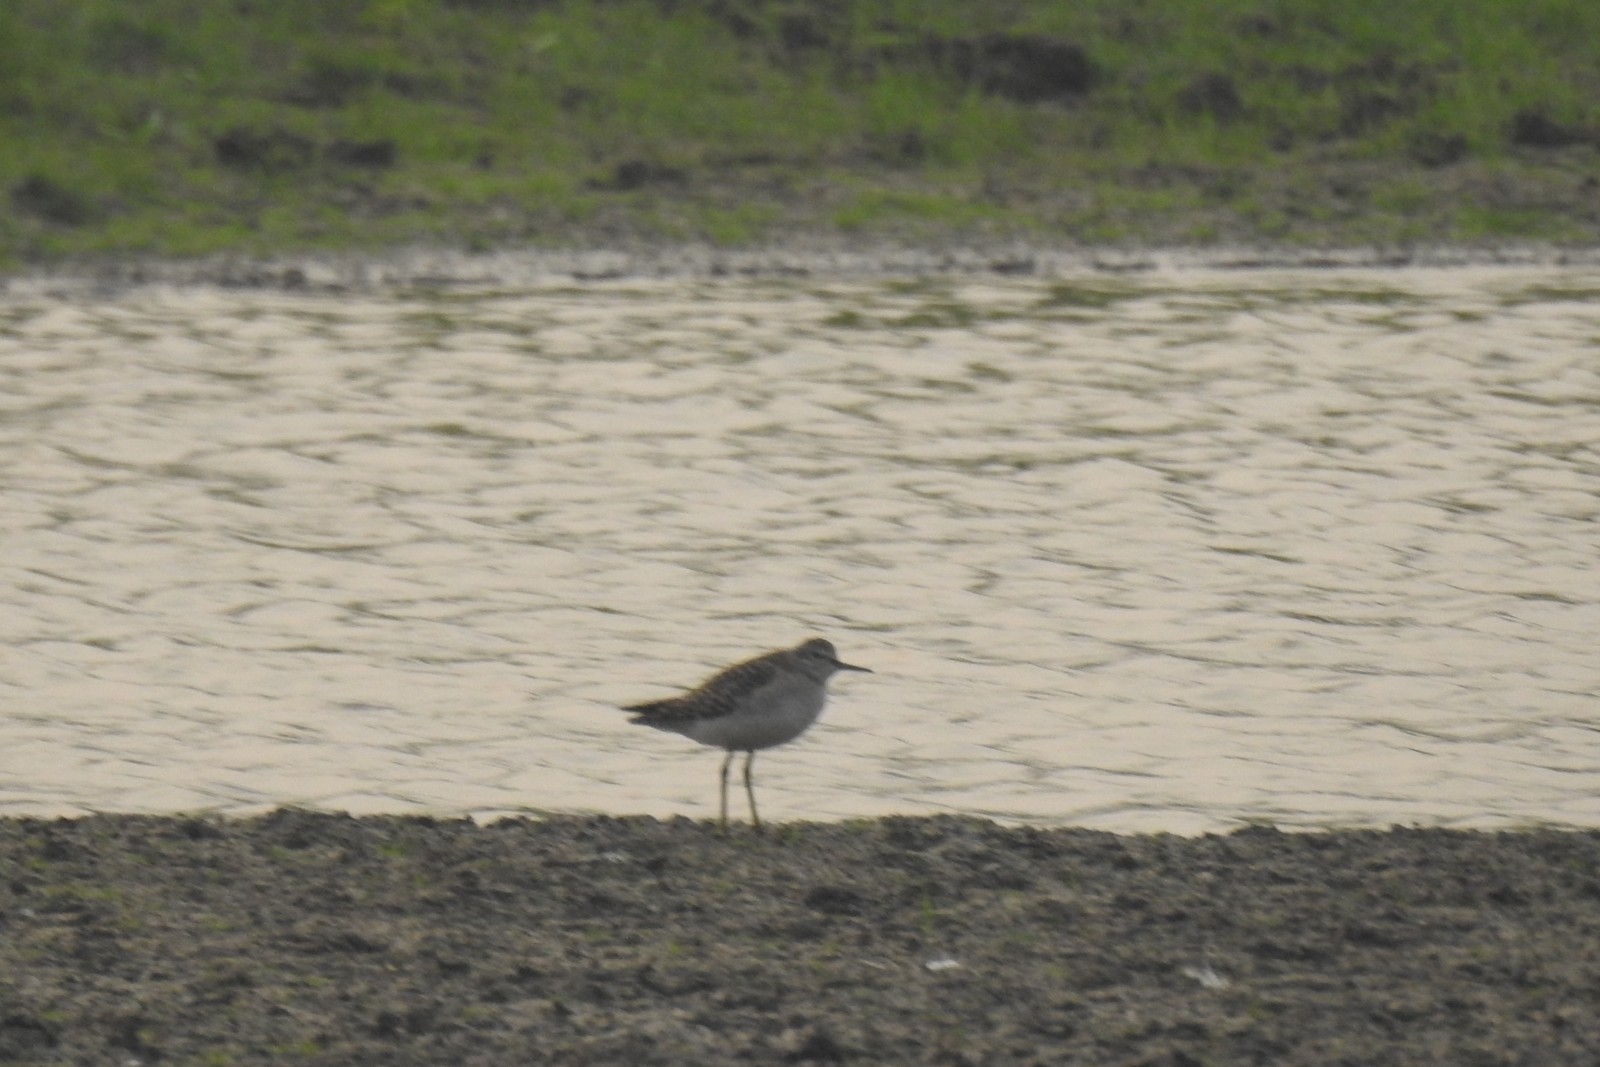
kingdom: Animalia
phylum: Chordata
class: Aves
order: Charadriiformes
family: Scolopacidae
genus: Tringa
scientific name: Tringa glareola
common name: Wood sandpiper
